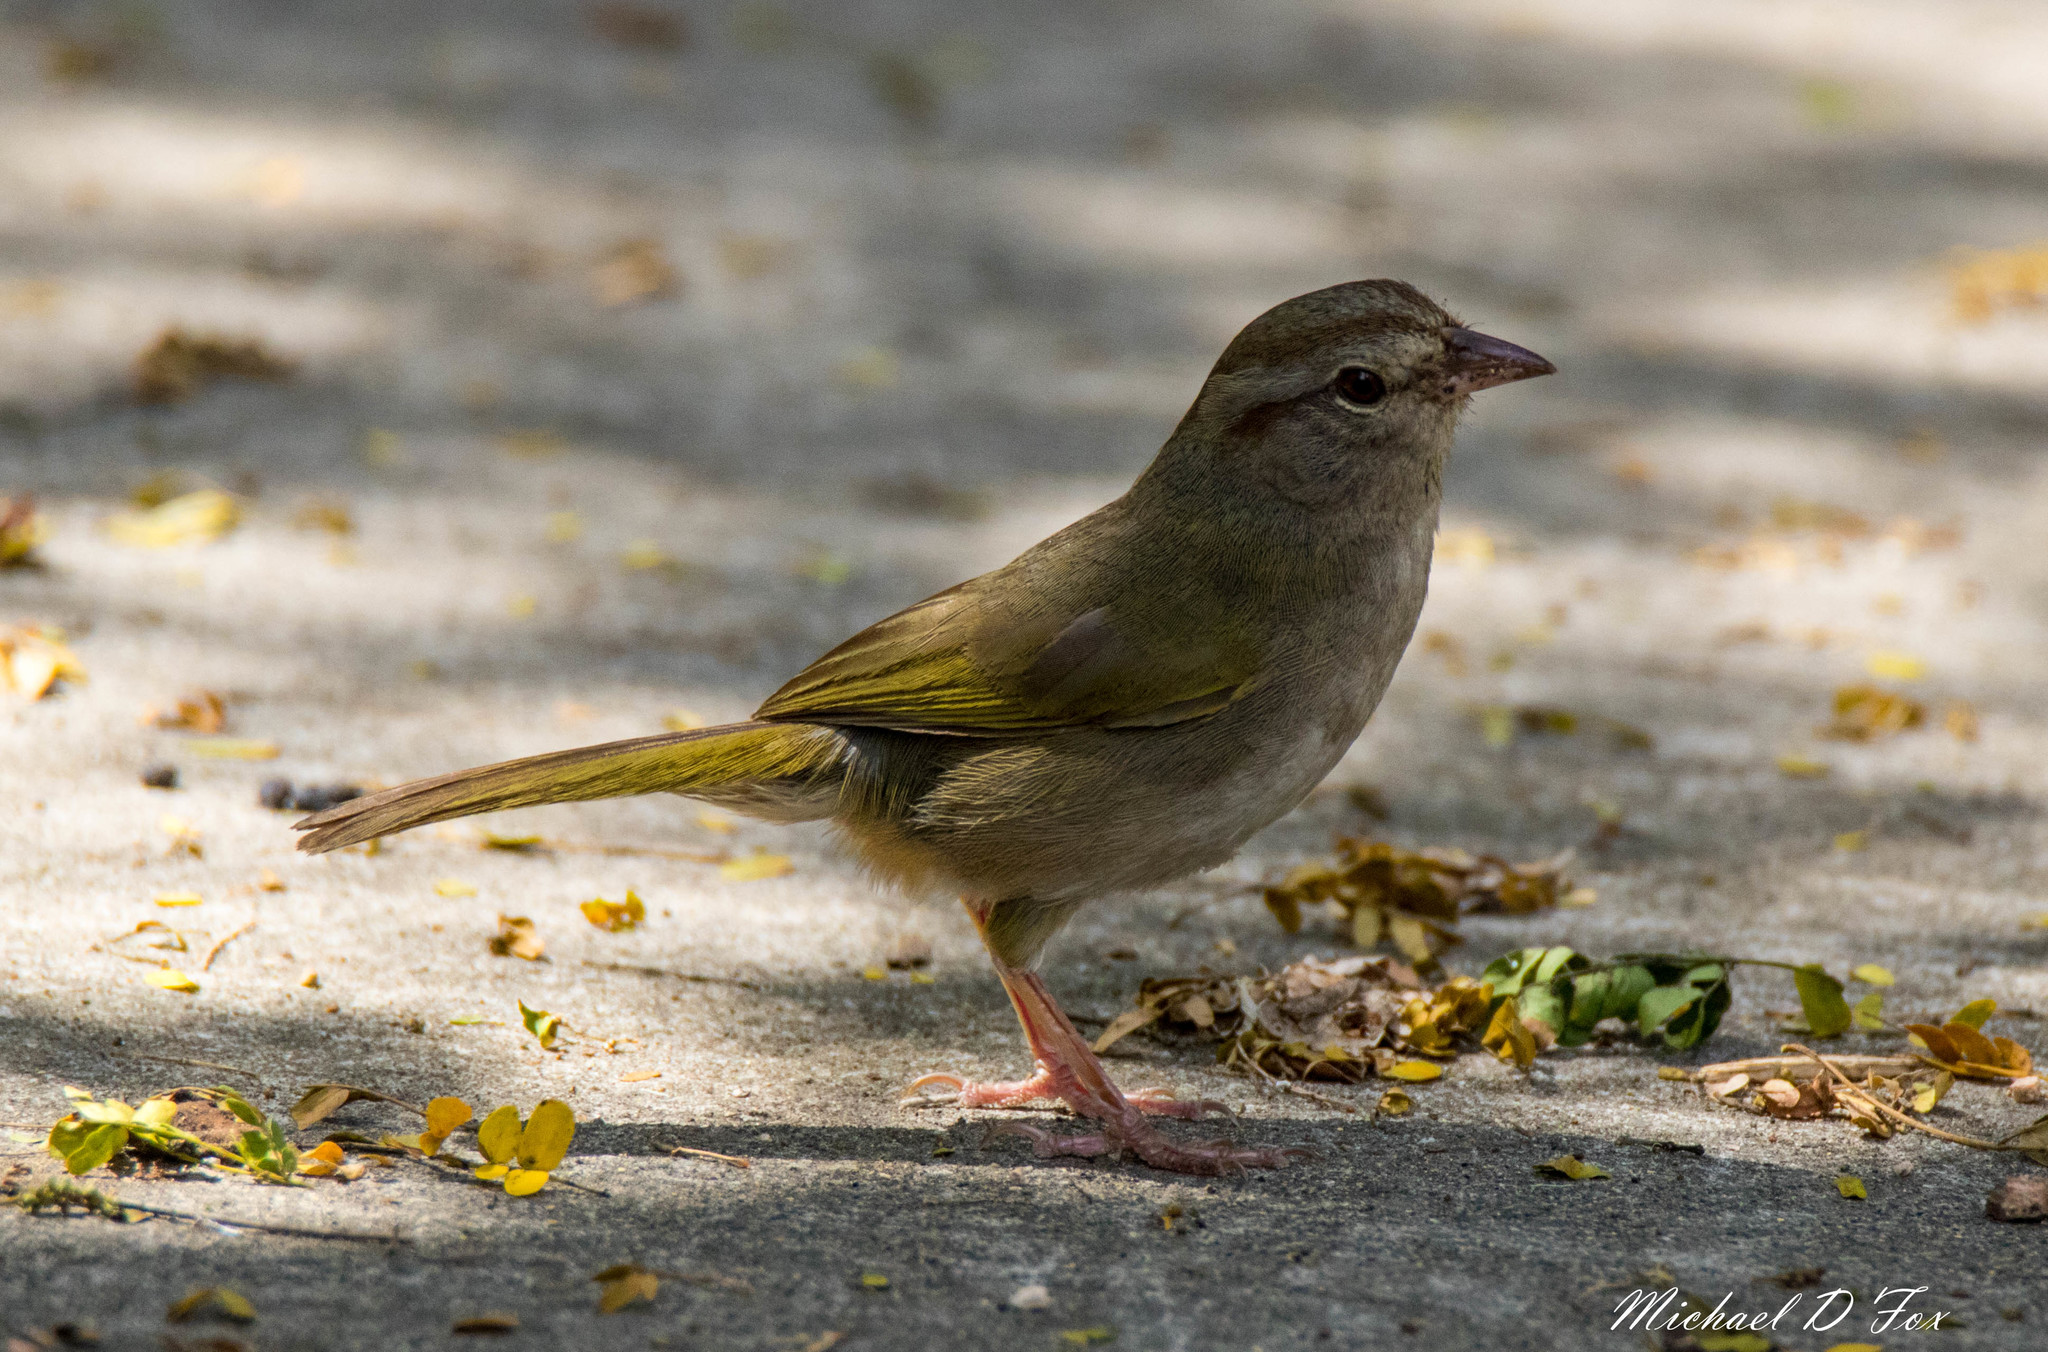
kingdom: Animalia
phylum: Chordata
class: Aves
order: Passeriformes
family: Passerellidae
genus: Arremonops
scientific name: Arremonops rufivirgatus
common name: Olive sparrow
